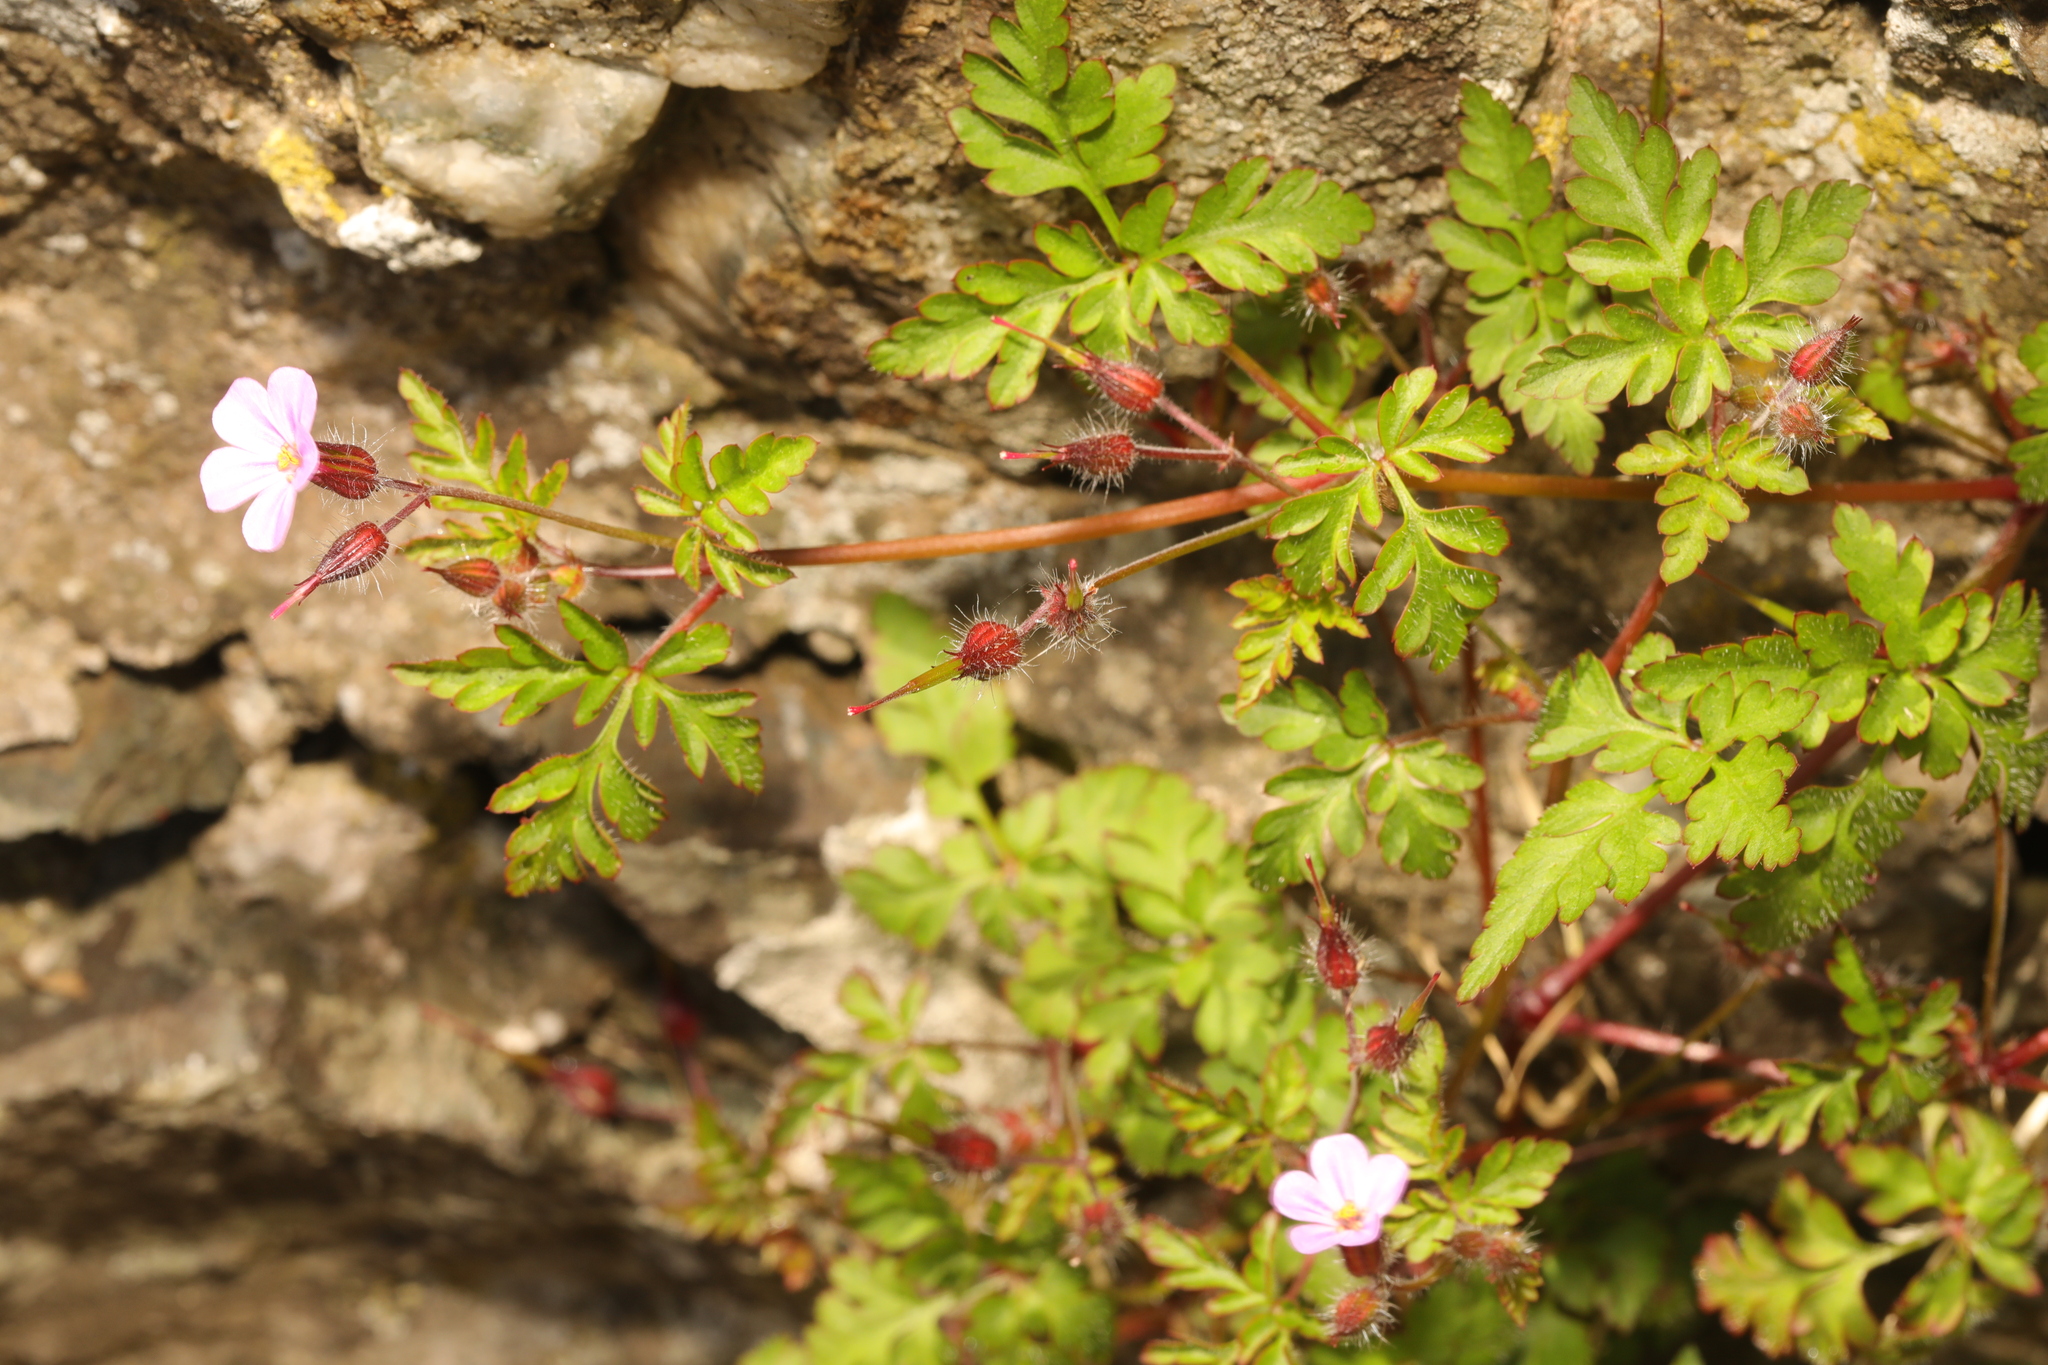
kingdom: Plantae
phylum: Tracheophyta
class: Magnoliopsida
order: Geraniales
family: Geraniaceae
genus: Geranium
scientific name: Geranium robertianum
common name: Herb-robert
